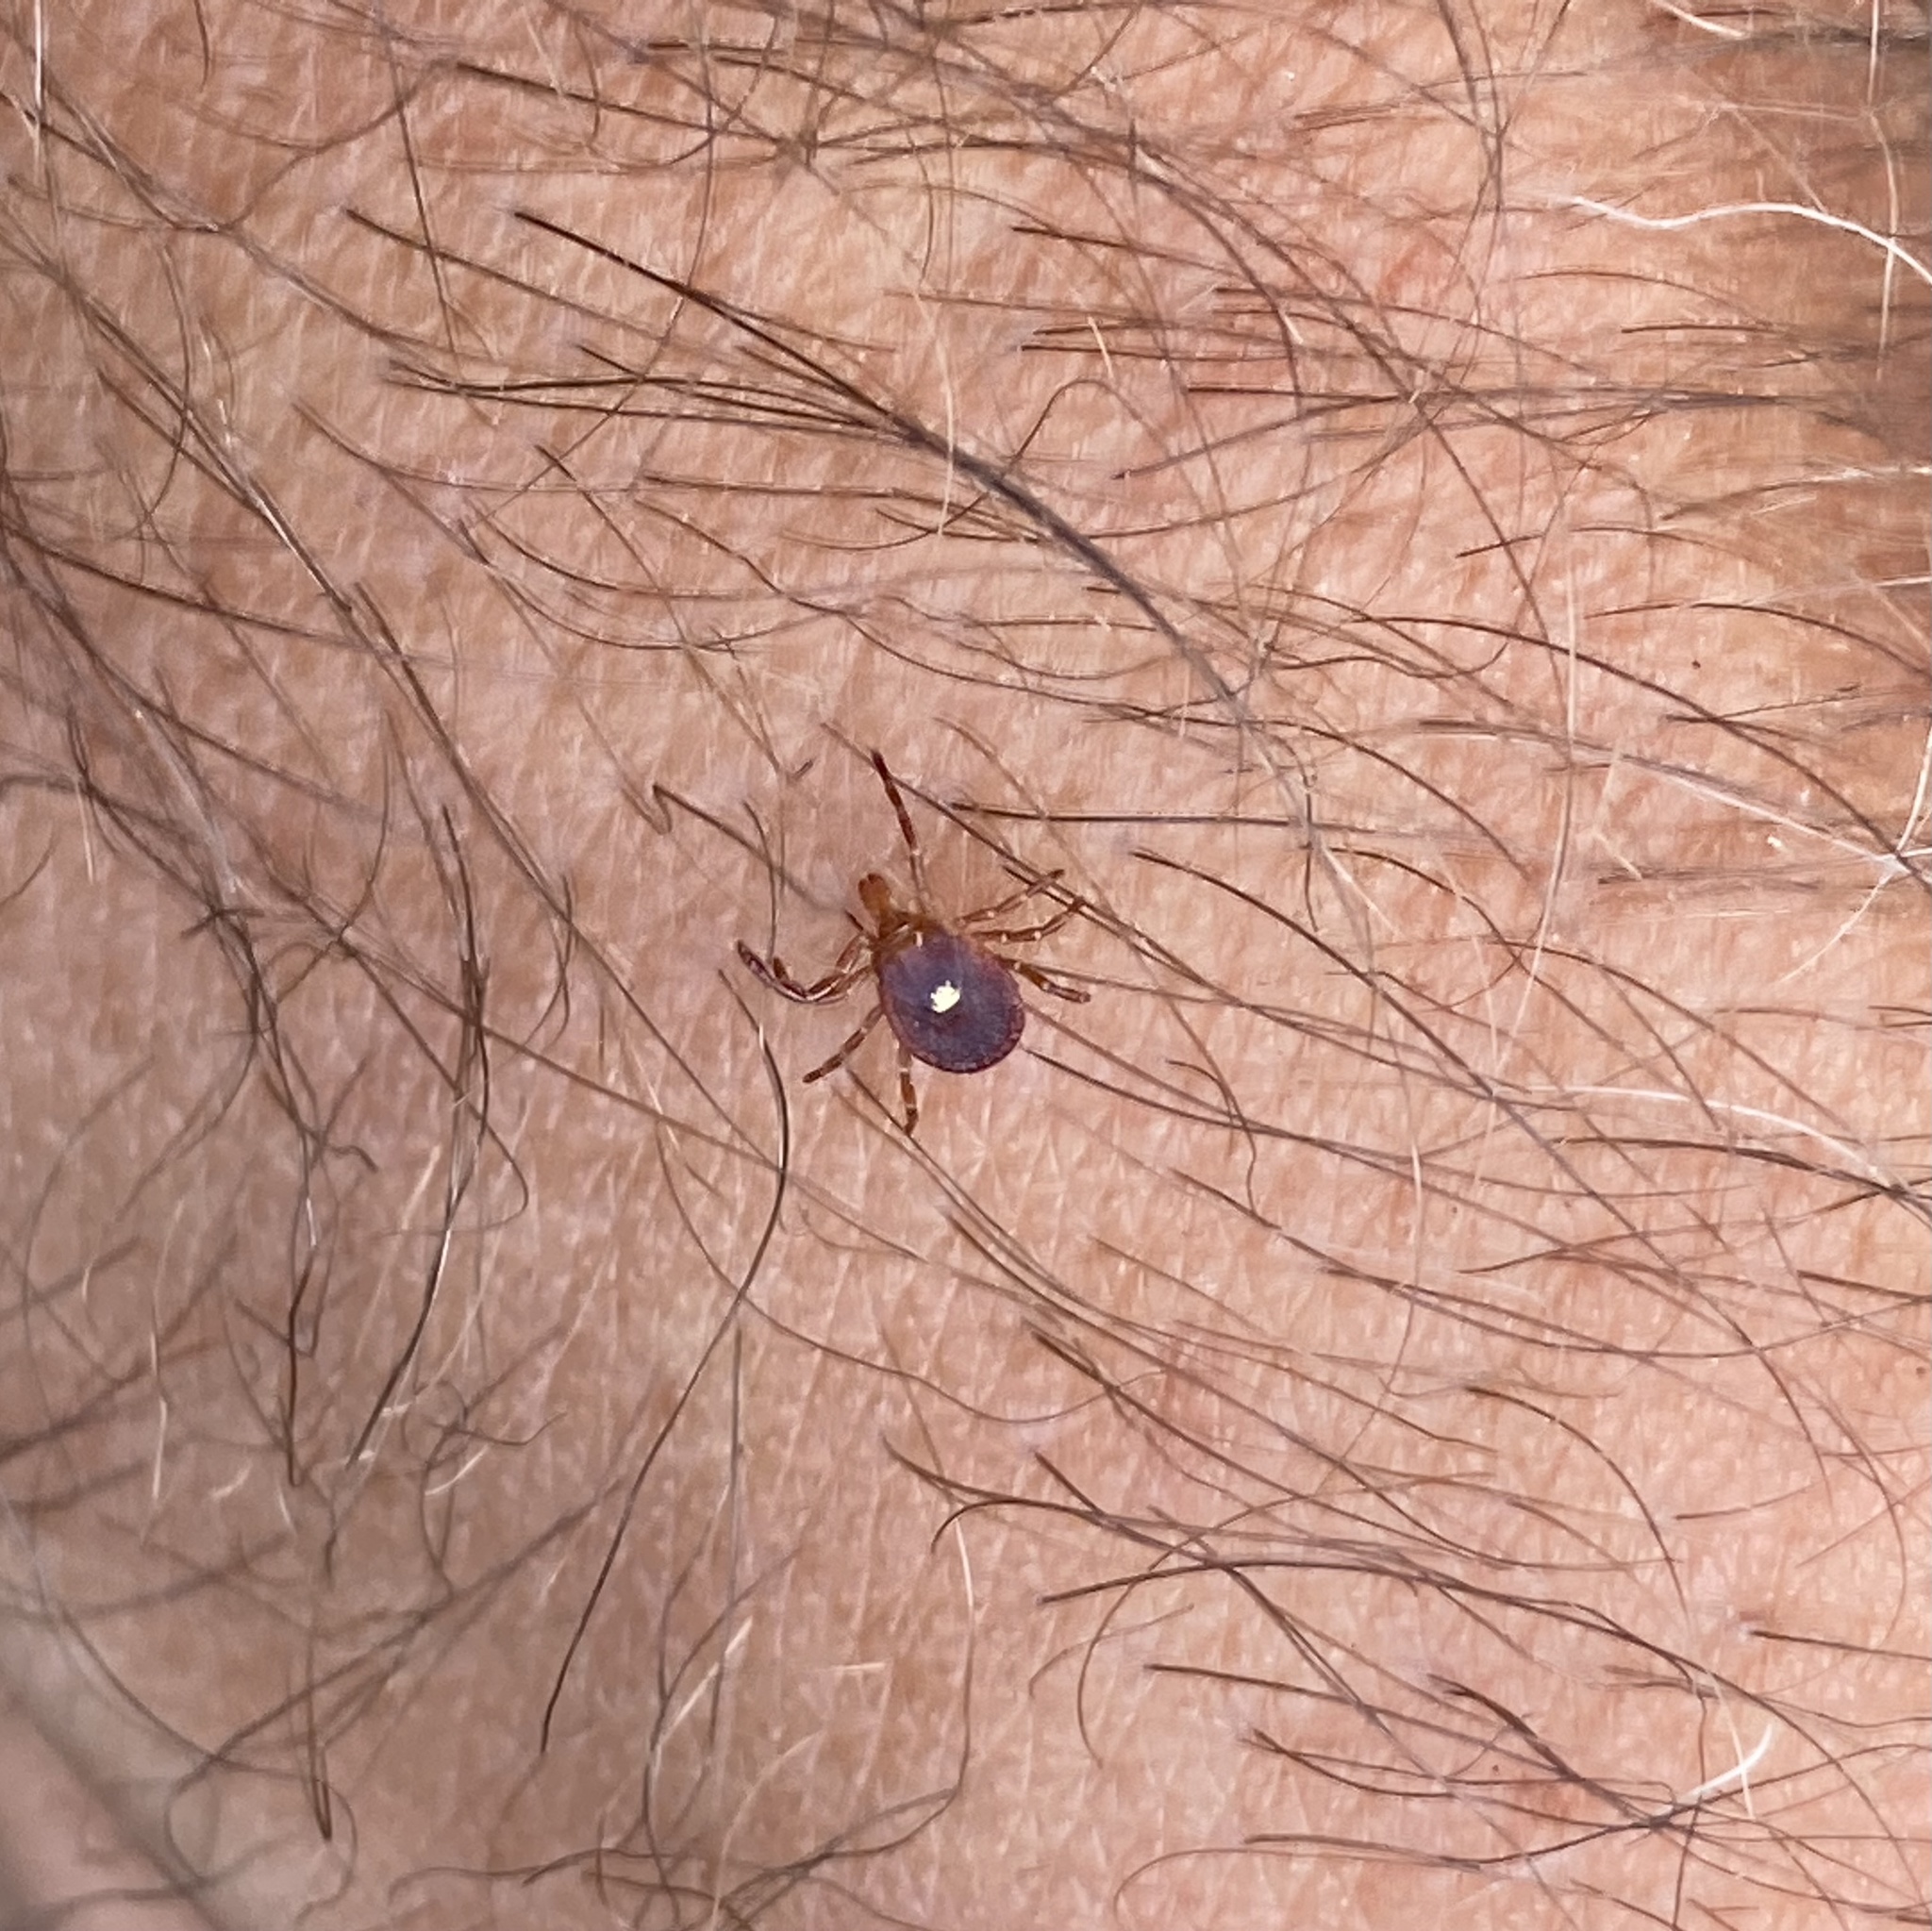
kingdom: Animalia
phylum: Arthropoda
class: Arachnida
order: Ixodida
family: Ixodidae
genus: Amblyomma
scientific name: Amblyomma americanum
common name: Lone star tick
